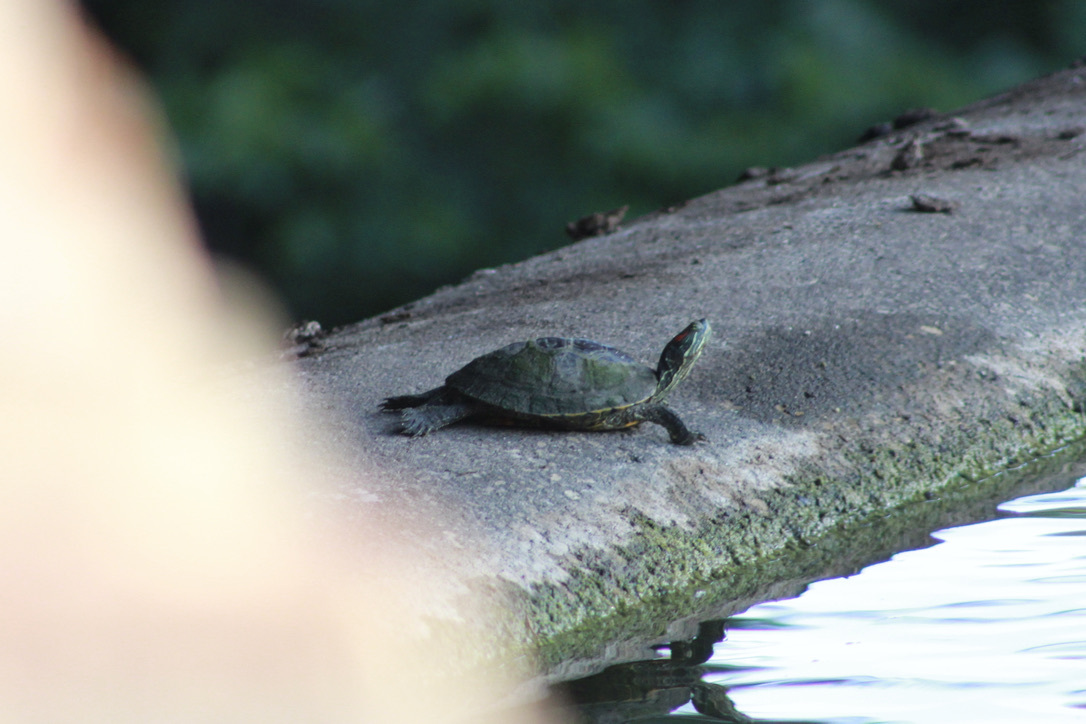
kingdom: Animalia
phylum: Chordata
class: Testudines
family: Emydidae
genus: Trachemys
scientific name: Trachemys scripta
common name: Slider
